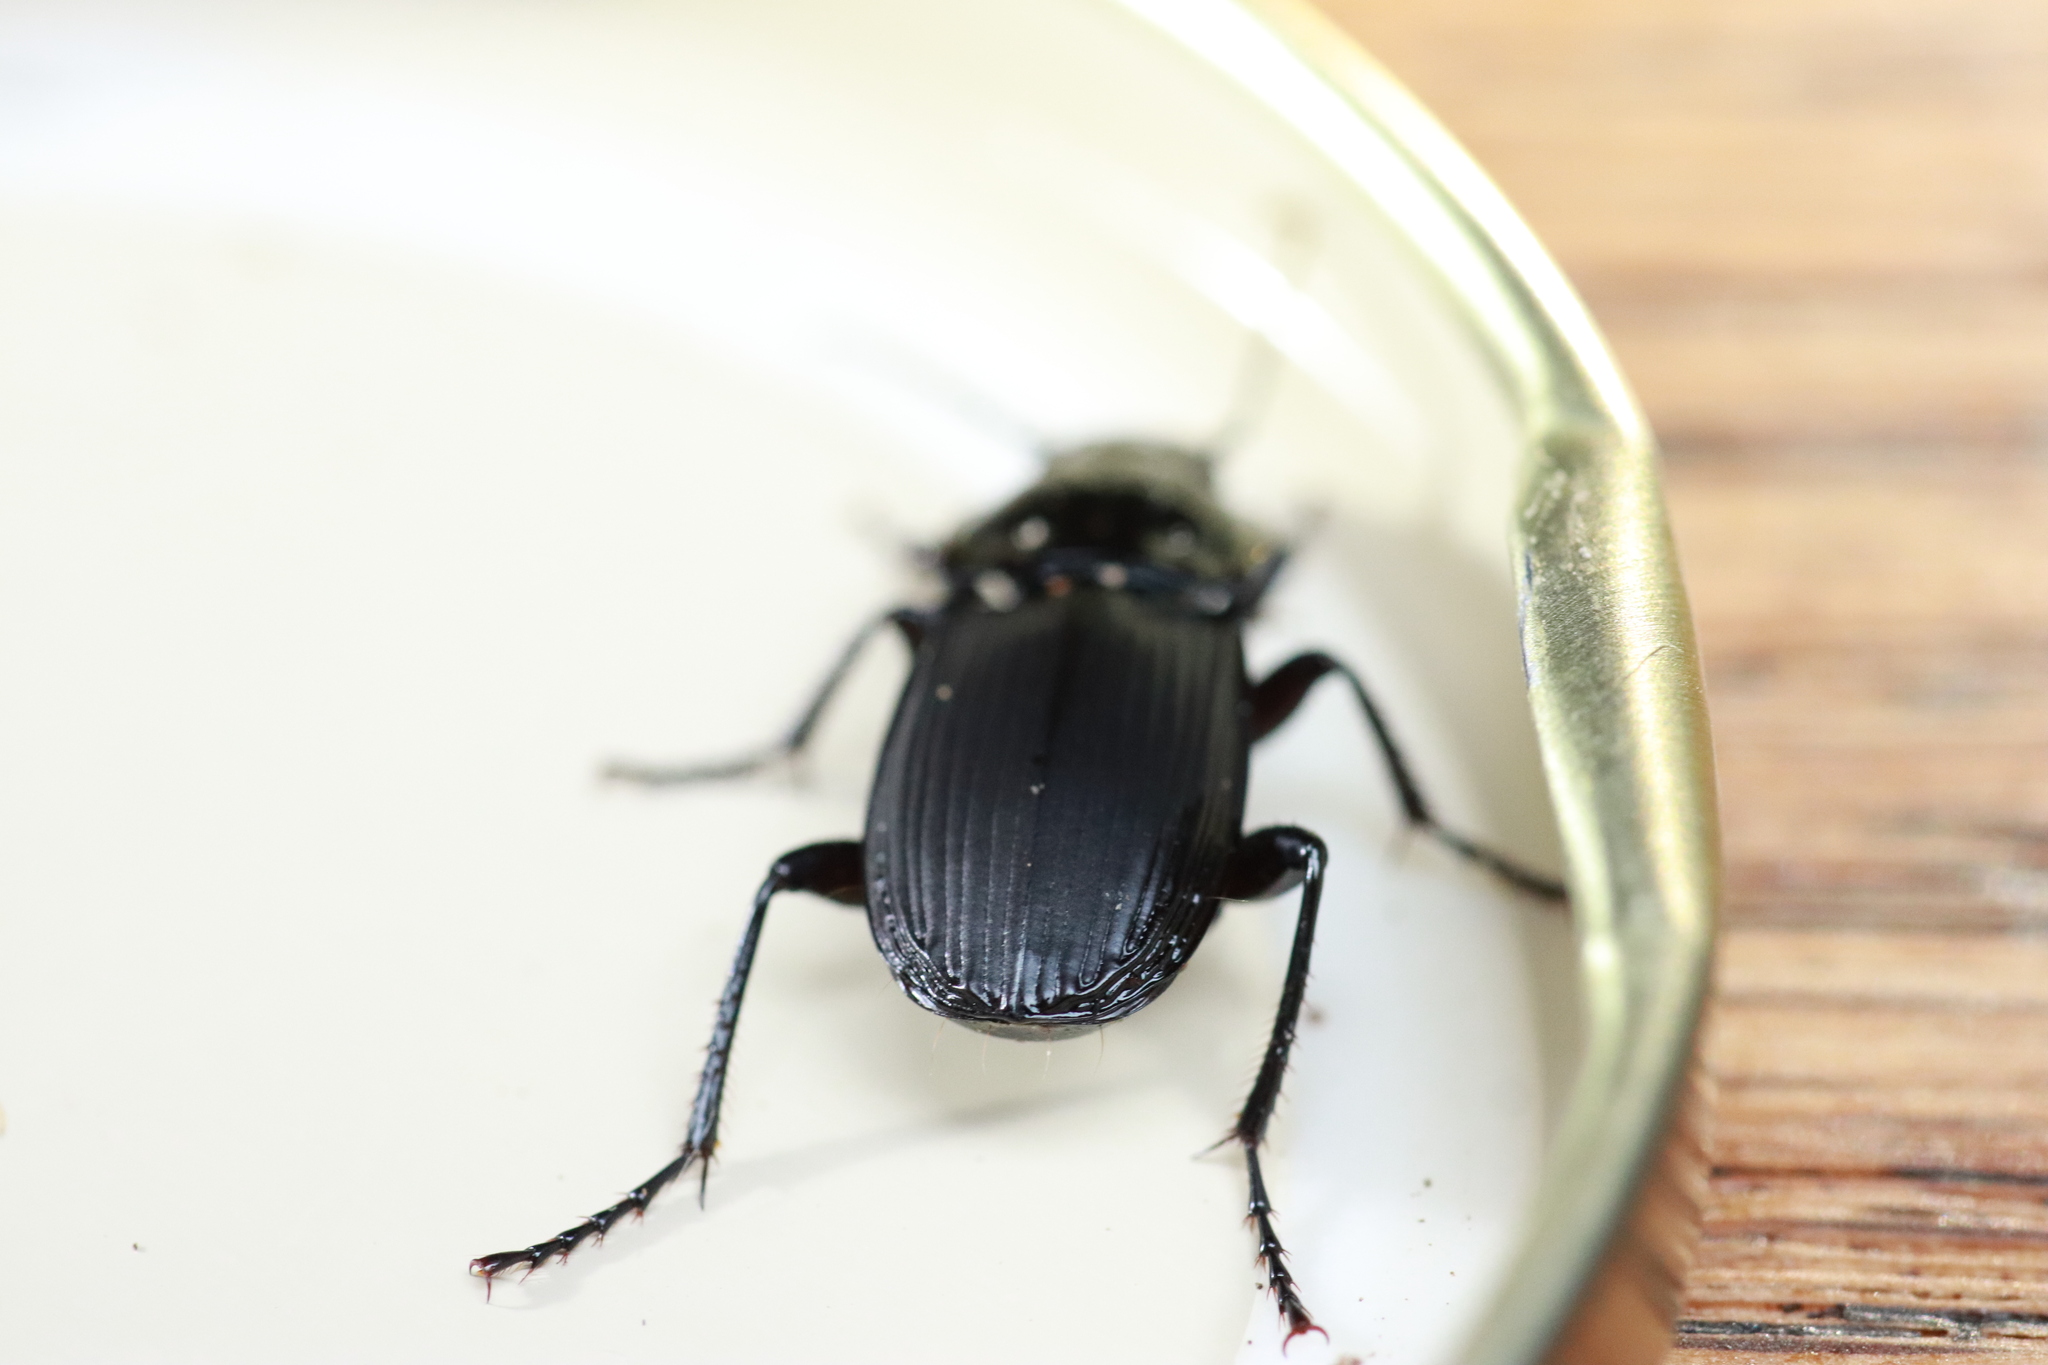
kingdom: Animalia
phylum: Arthropoda
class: Insecta
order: Coleoptera
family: Carabidae
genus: Abax
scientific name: Abax parallelepipedus
